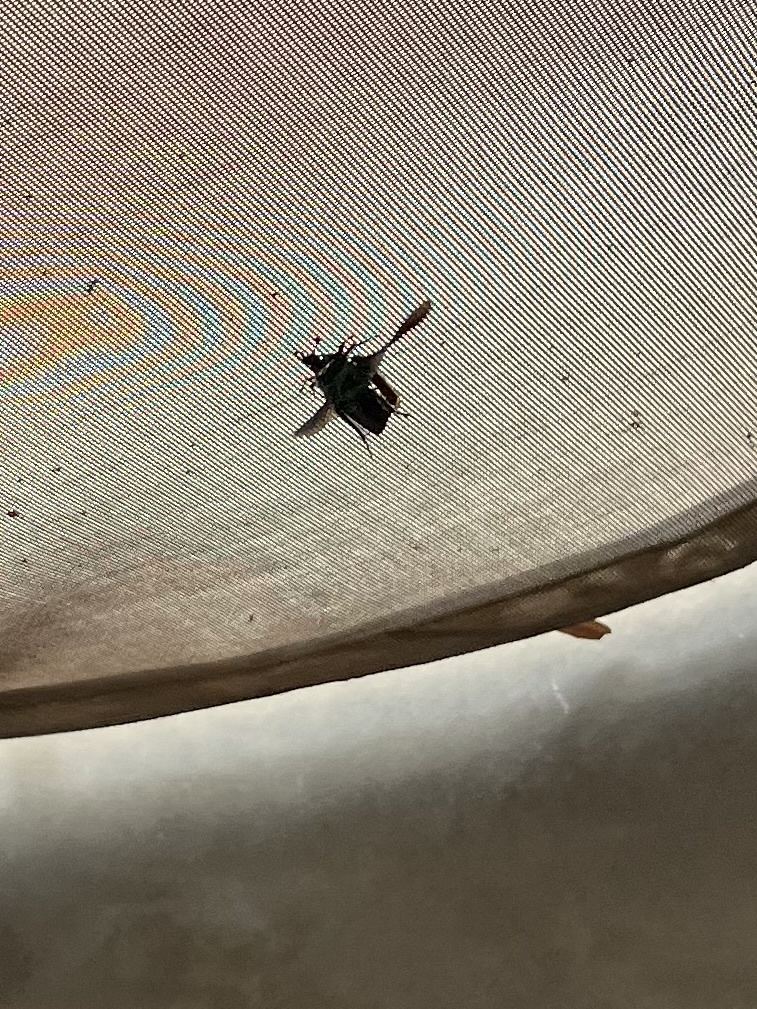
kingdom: Animalia
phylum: Arthropoda
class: Insecta
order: Coleoptera
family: Scarabaeidae
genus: Cotinis
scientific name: Cotinis mutabilis
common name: Figeater beetle
